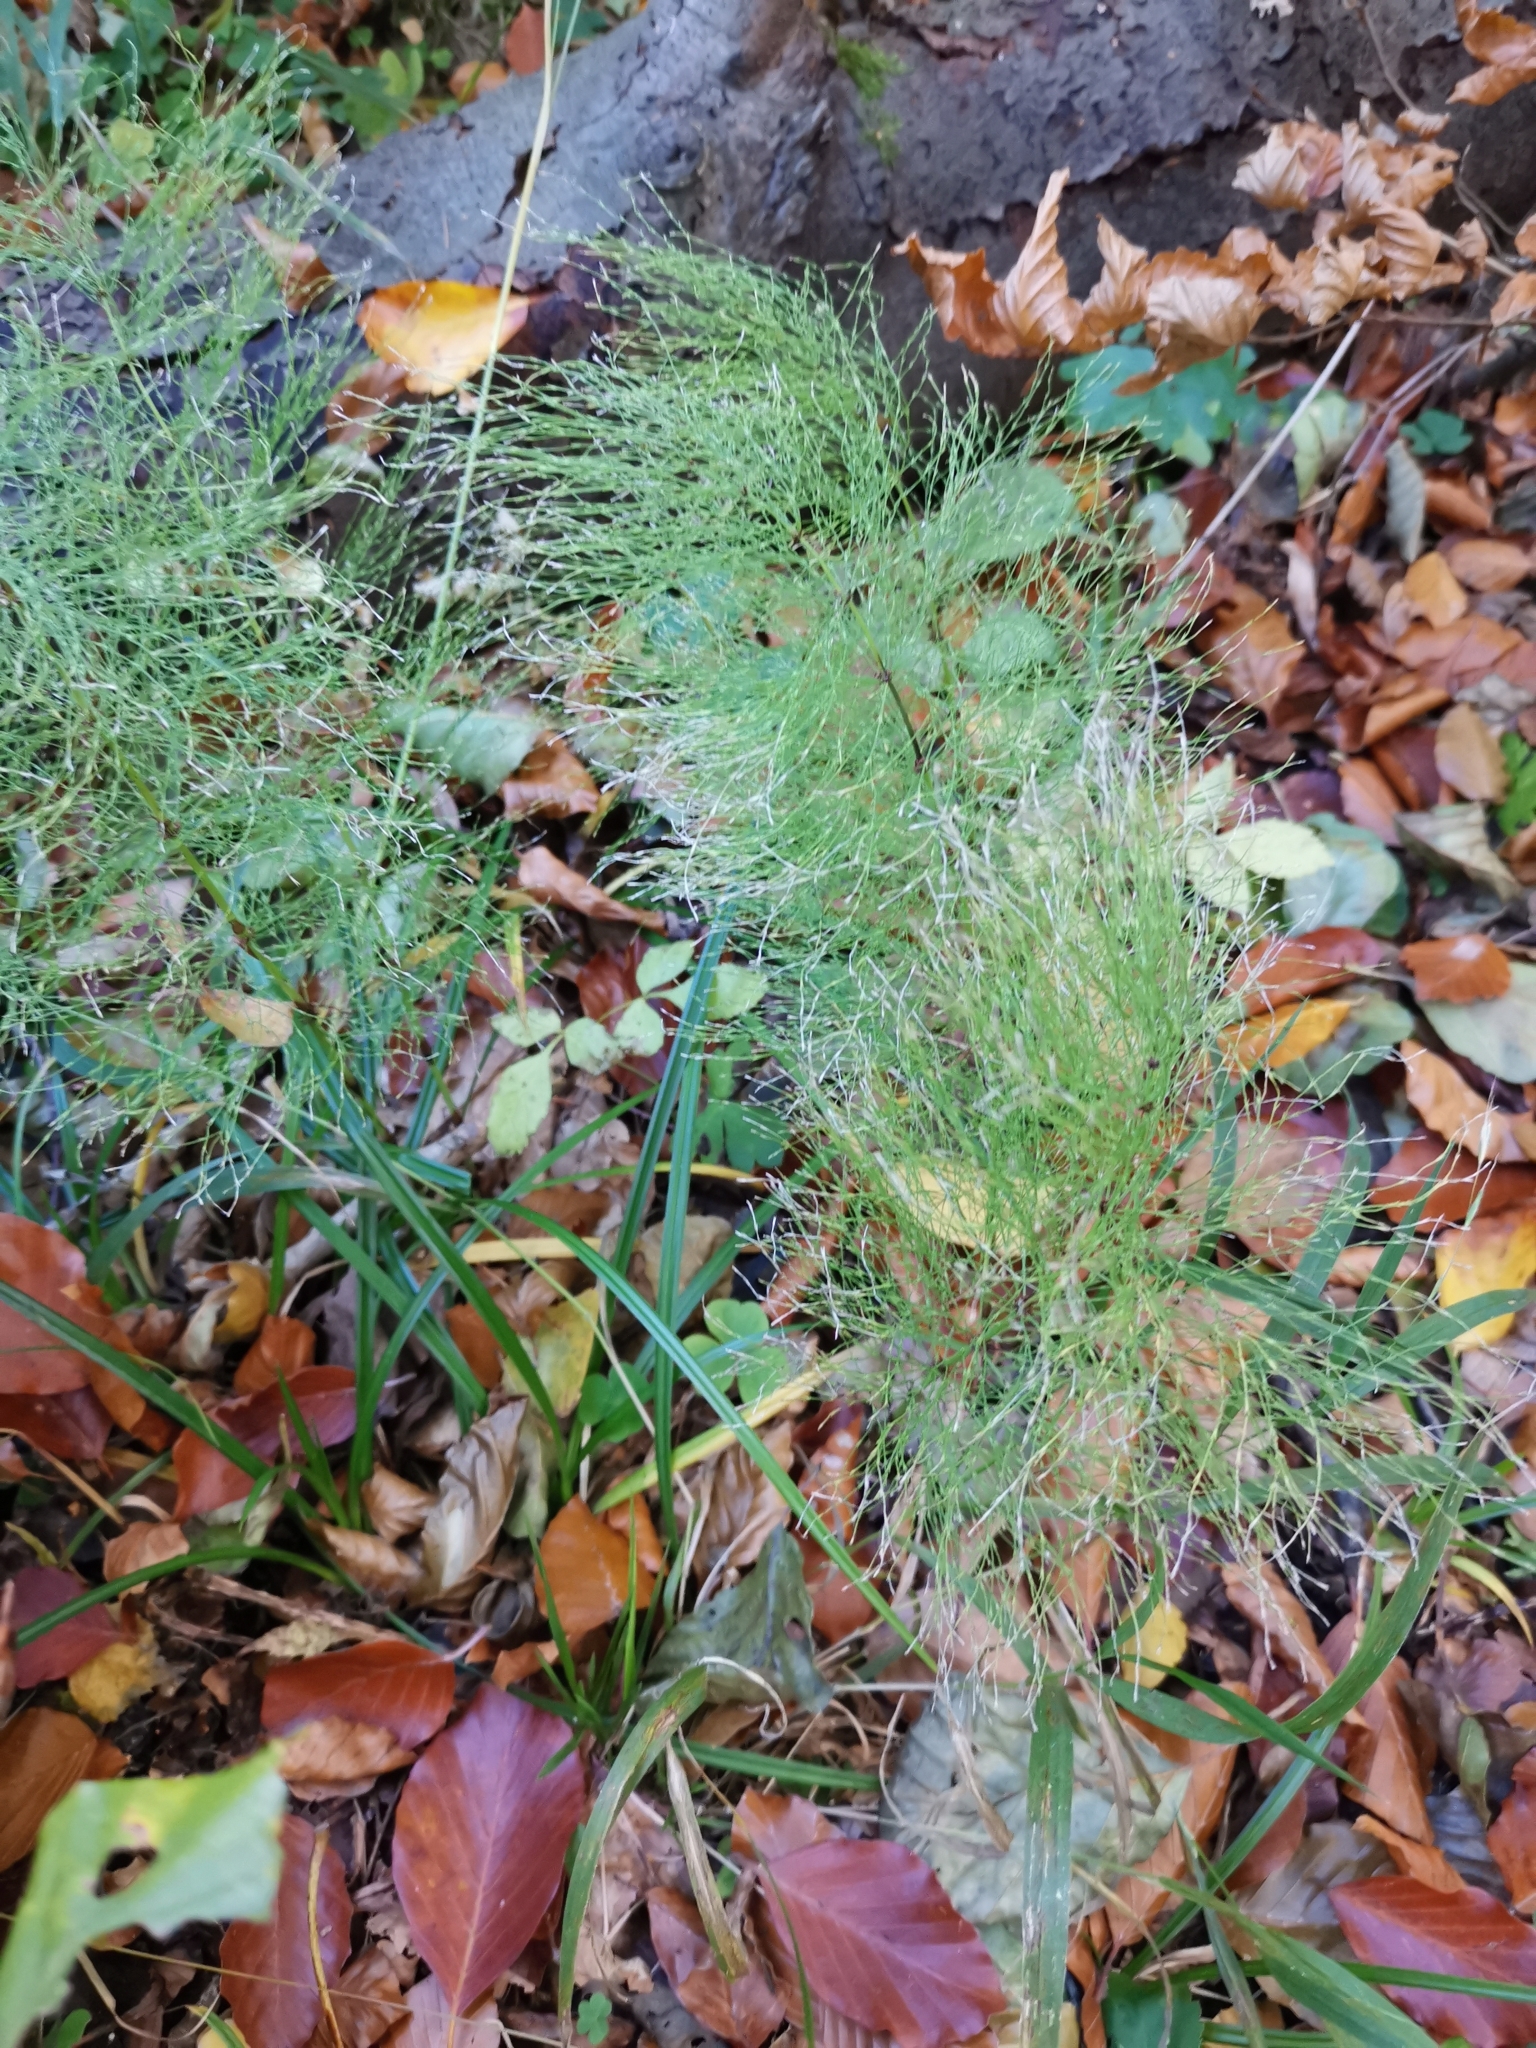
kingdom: Plantae
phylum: Tracheophyta
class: Polypodiopsida
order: Equisetales
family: Equisetaceae
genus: Equisetum
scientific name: Equisetum sylvaticum
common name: Wood horsetail
